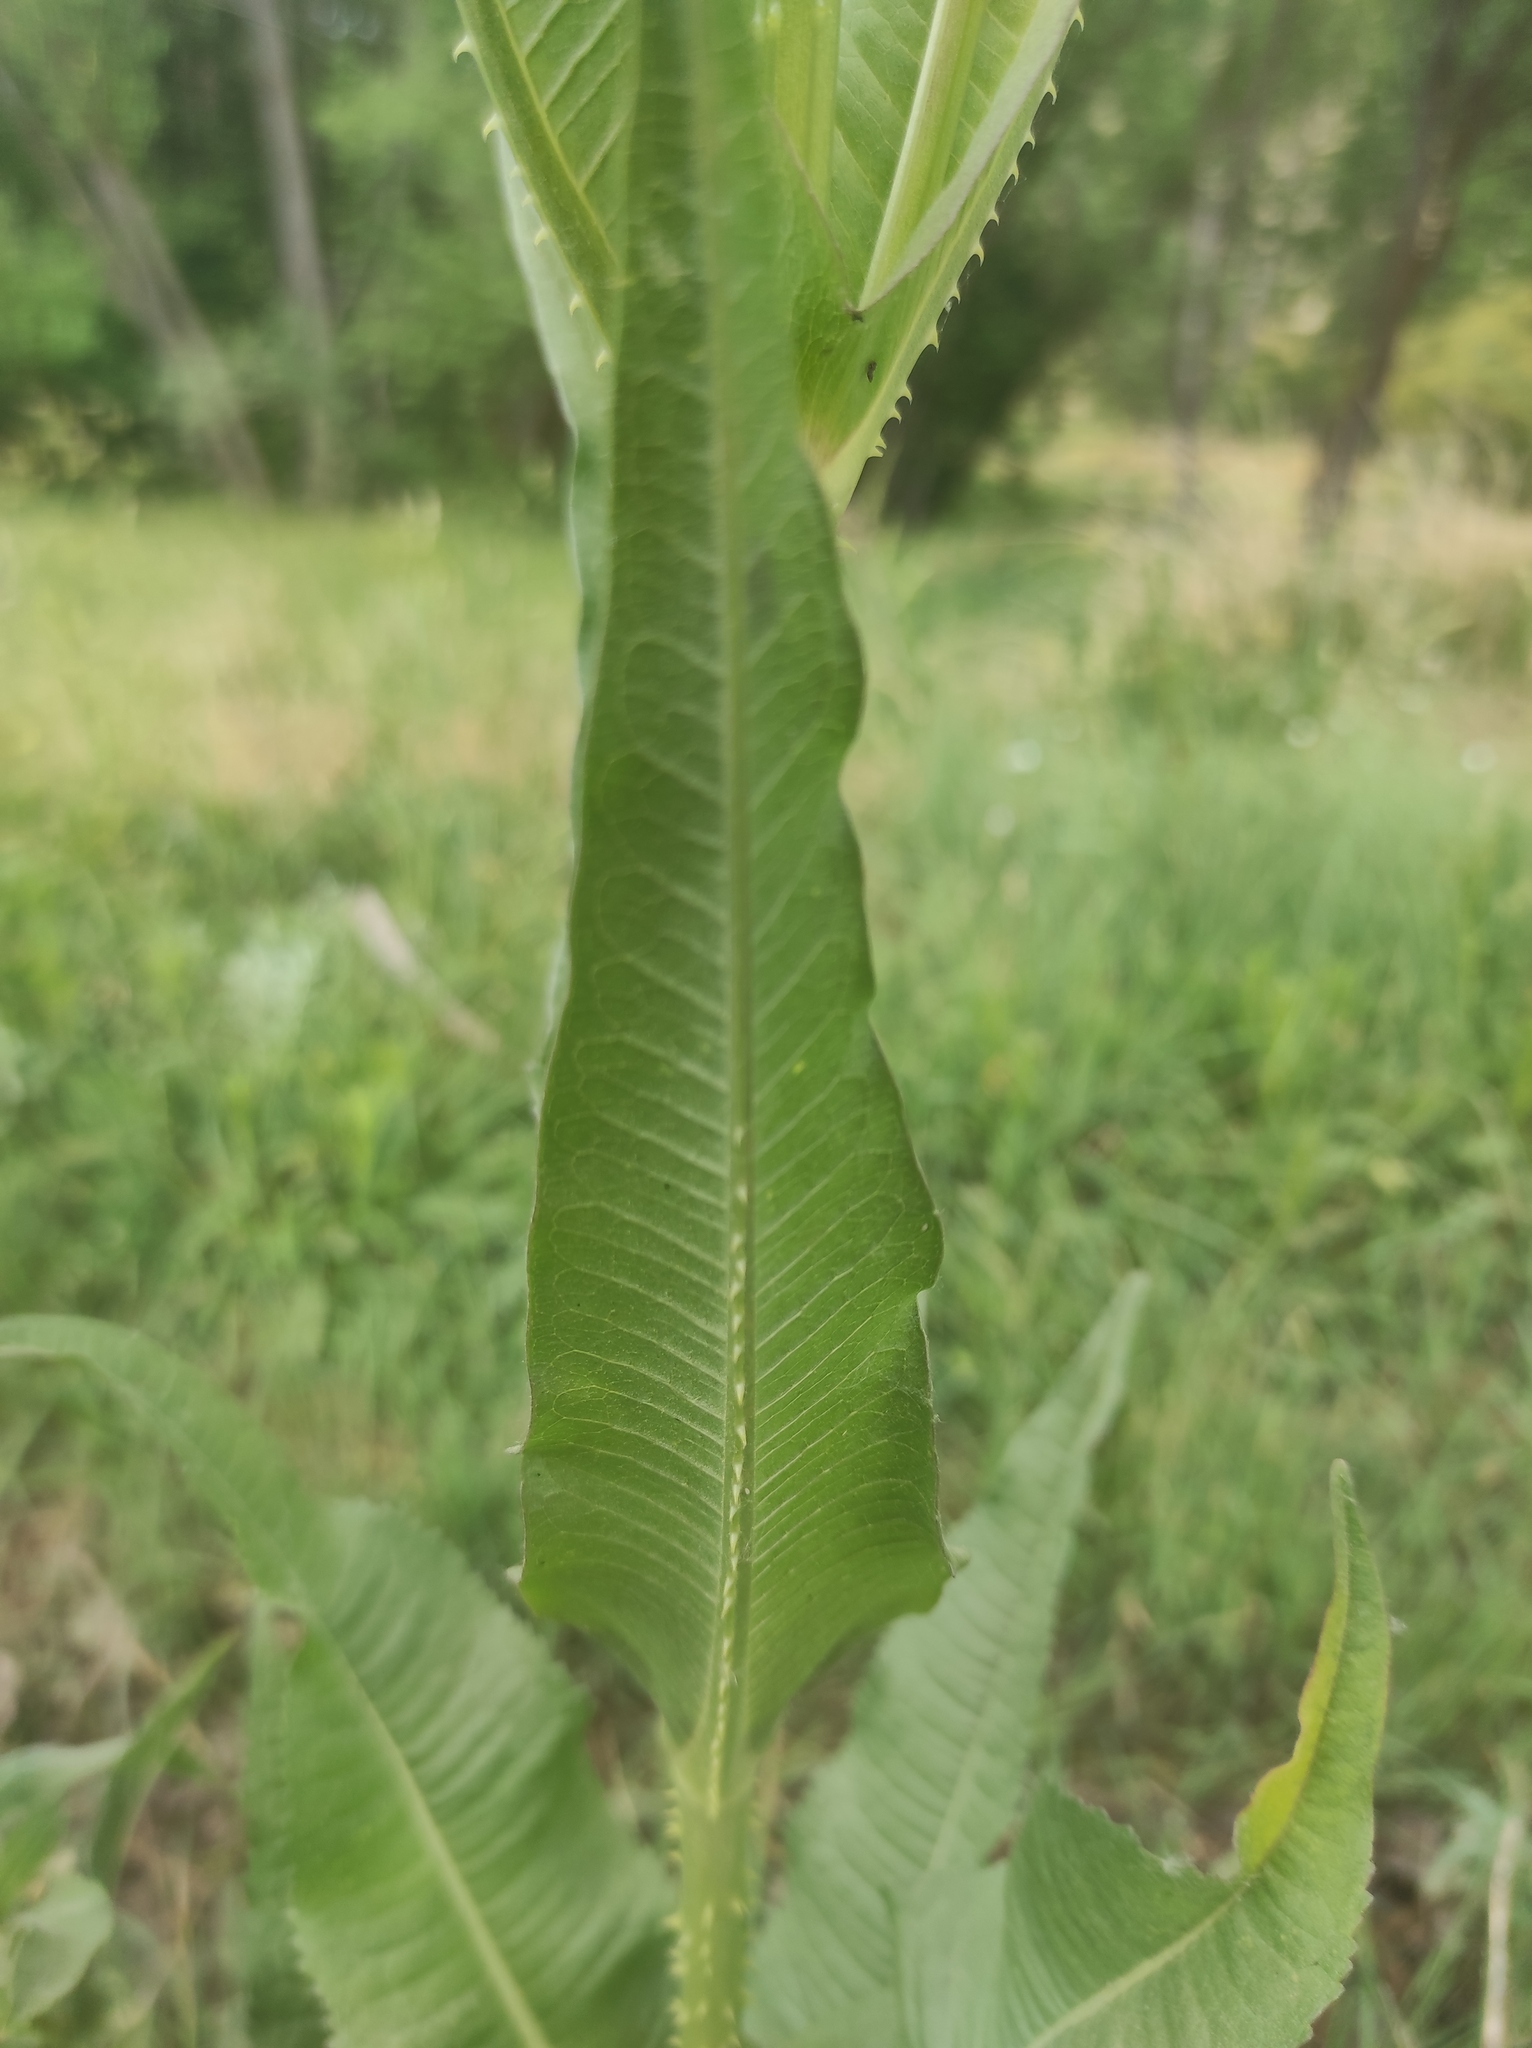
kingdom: Plantae
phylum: Tracheophyta
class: Magnoliopsida
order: Dipsacales
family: Caprifoliaceae
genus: Dipsacus
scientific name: Dipsacus fullonum
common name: Teasel
